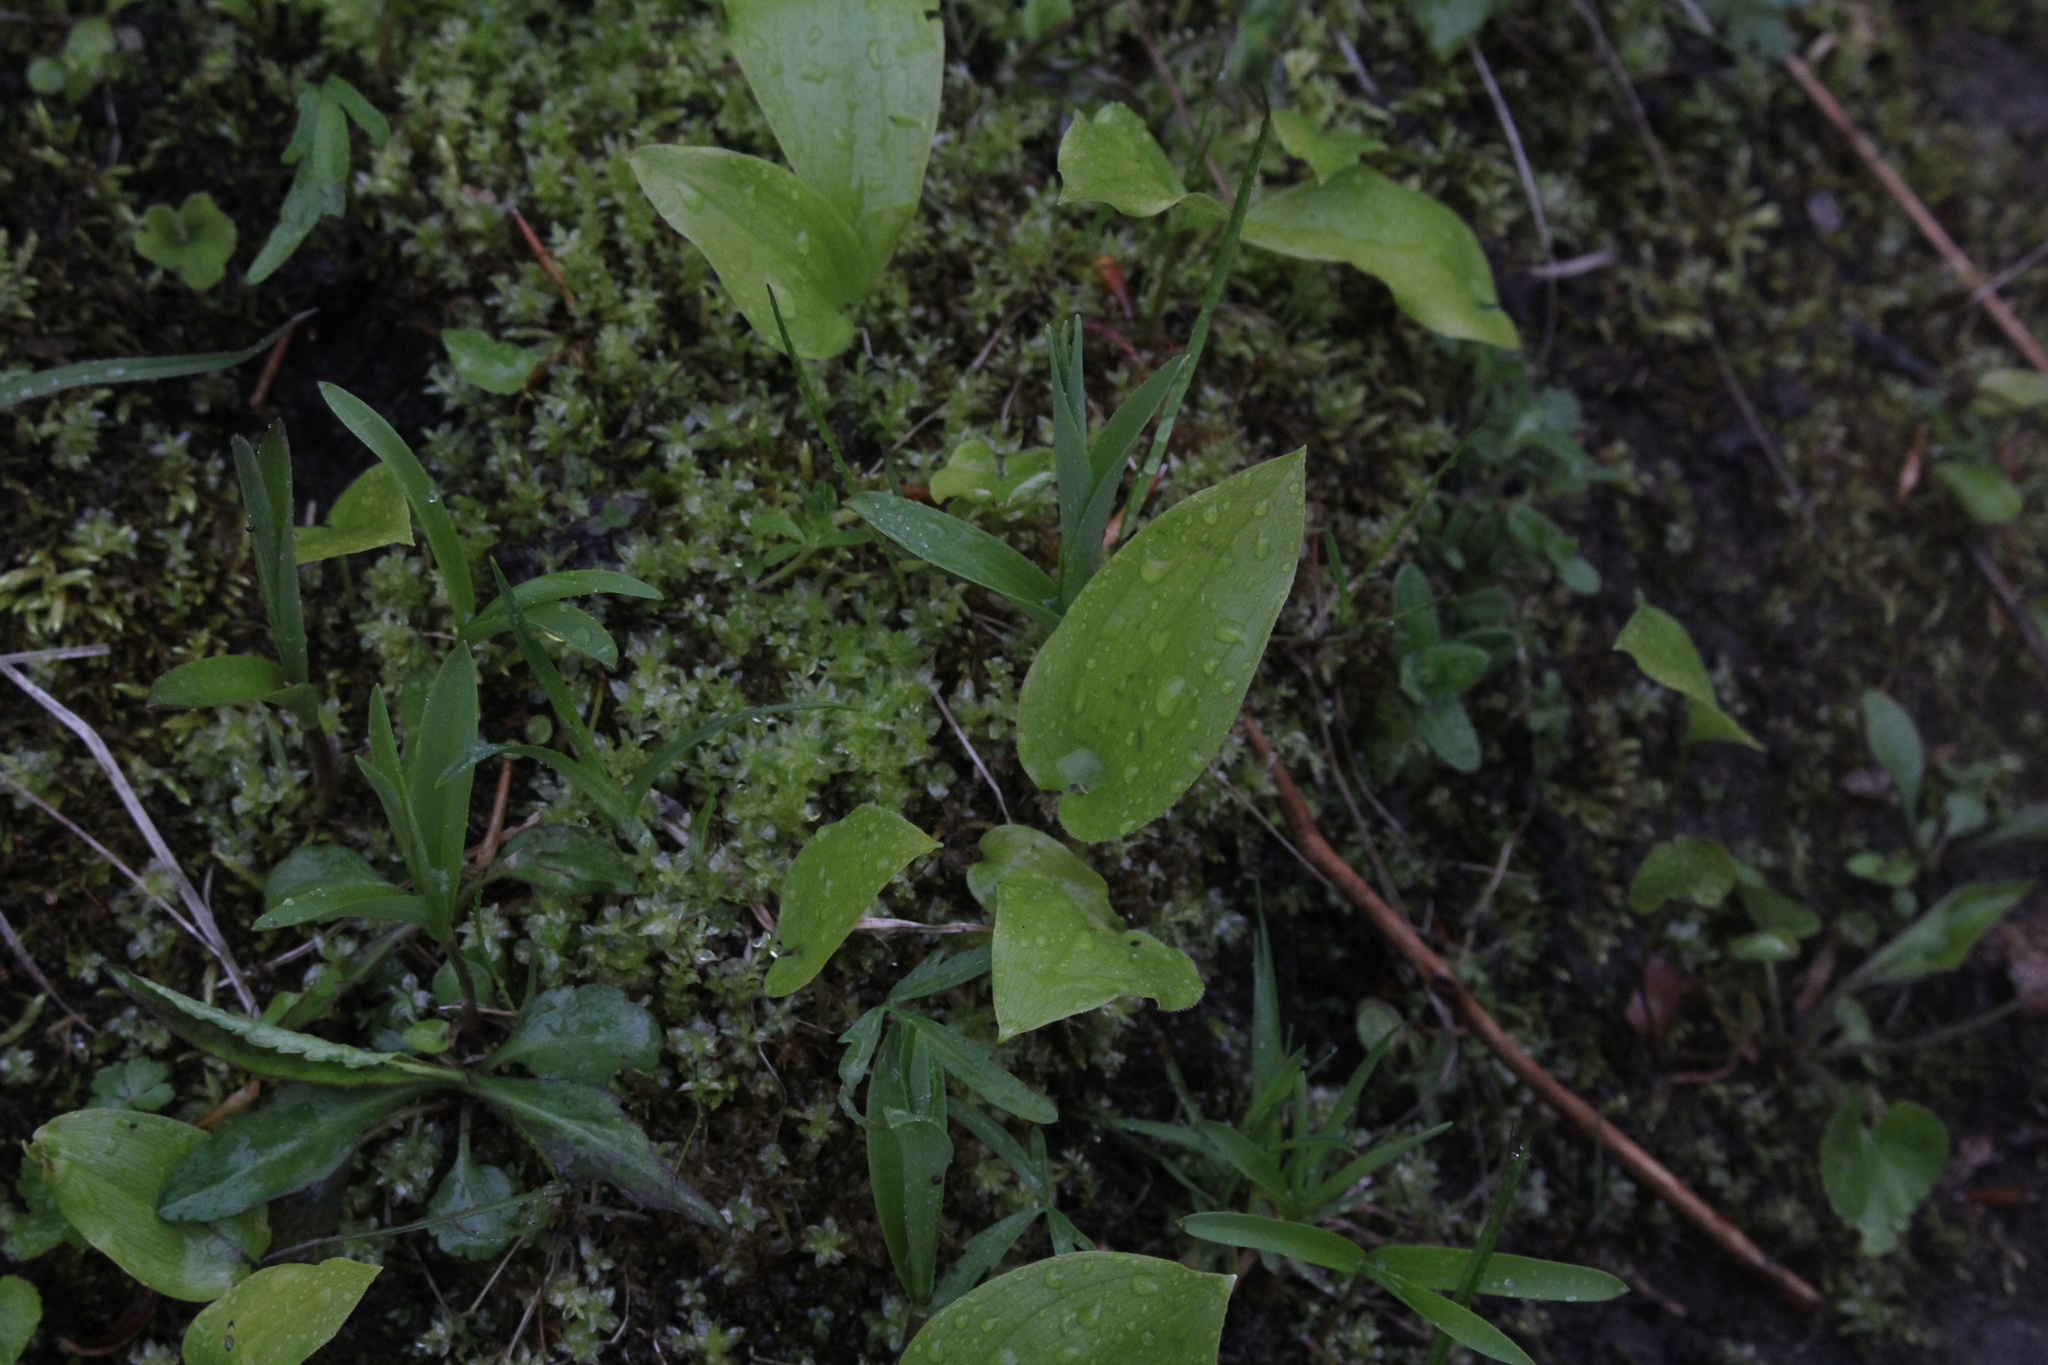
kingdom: Plantae
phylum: Tracheophyta
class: Liliopsida
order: Asparagales
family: Asparagaceae
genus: Maianthemum
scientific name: Maianthemum canadense
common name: False lily-of-the-valley
